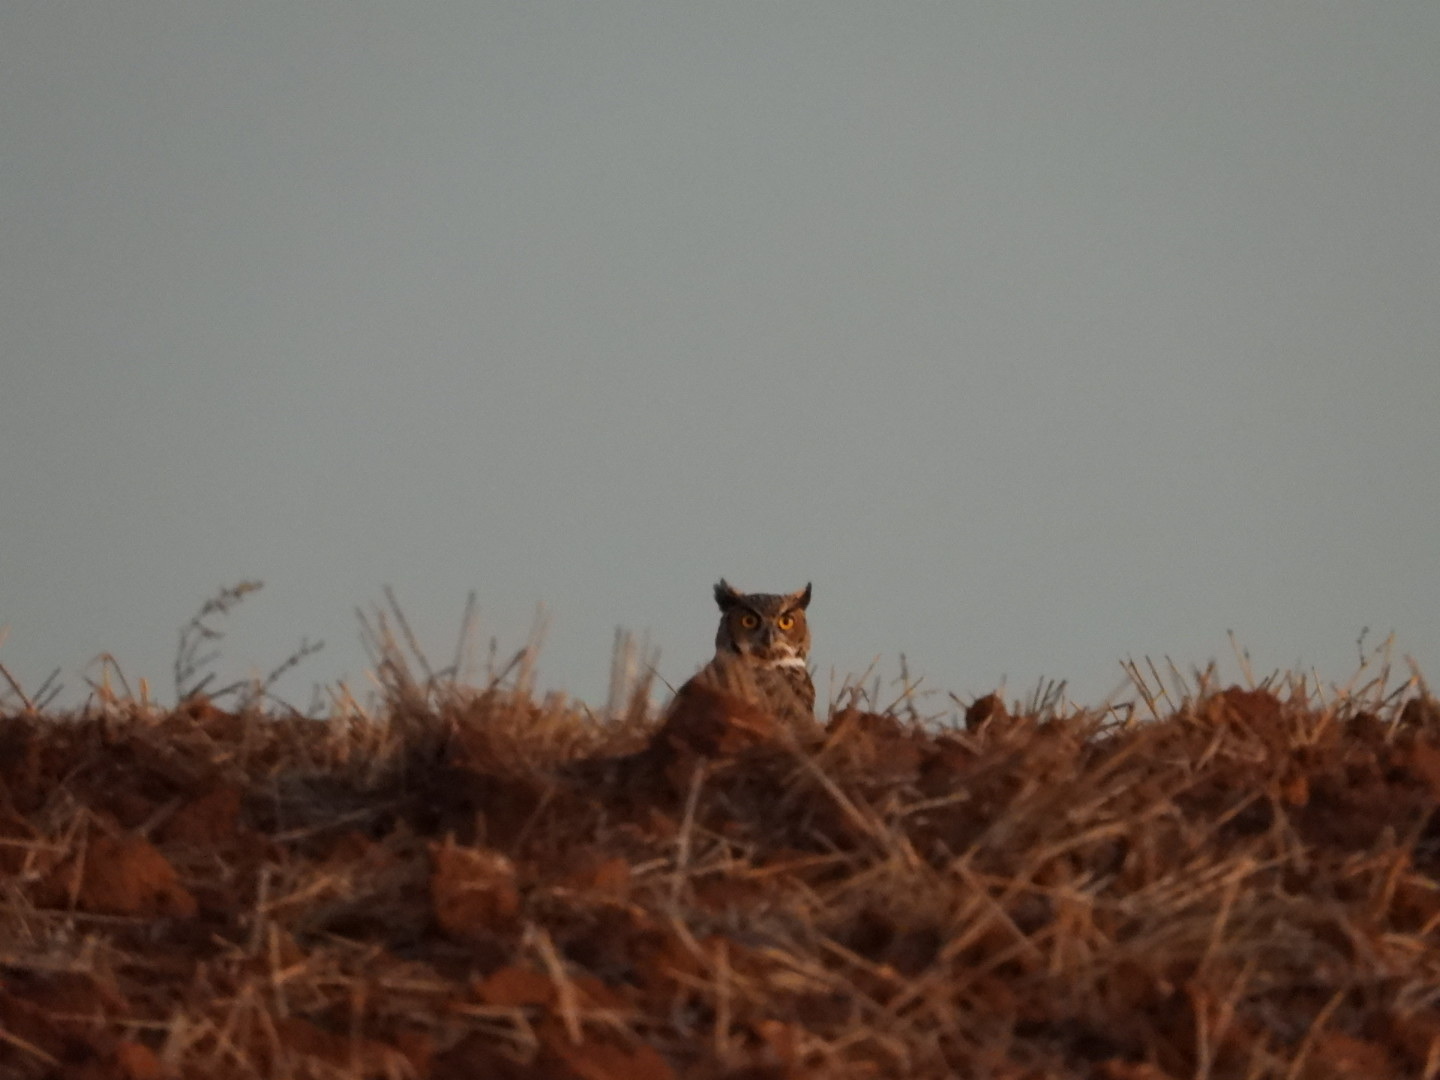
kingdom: Animalia
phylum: Chordata
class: Aves
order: Strigiformes
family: Strigidae
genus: Bubo
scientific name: Bubo virginianus
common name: Great horned owl
